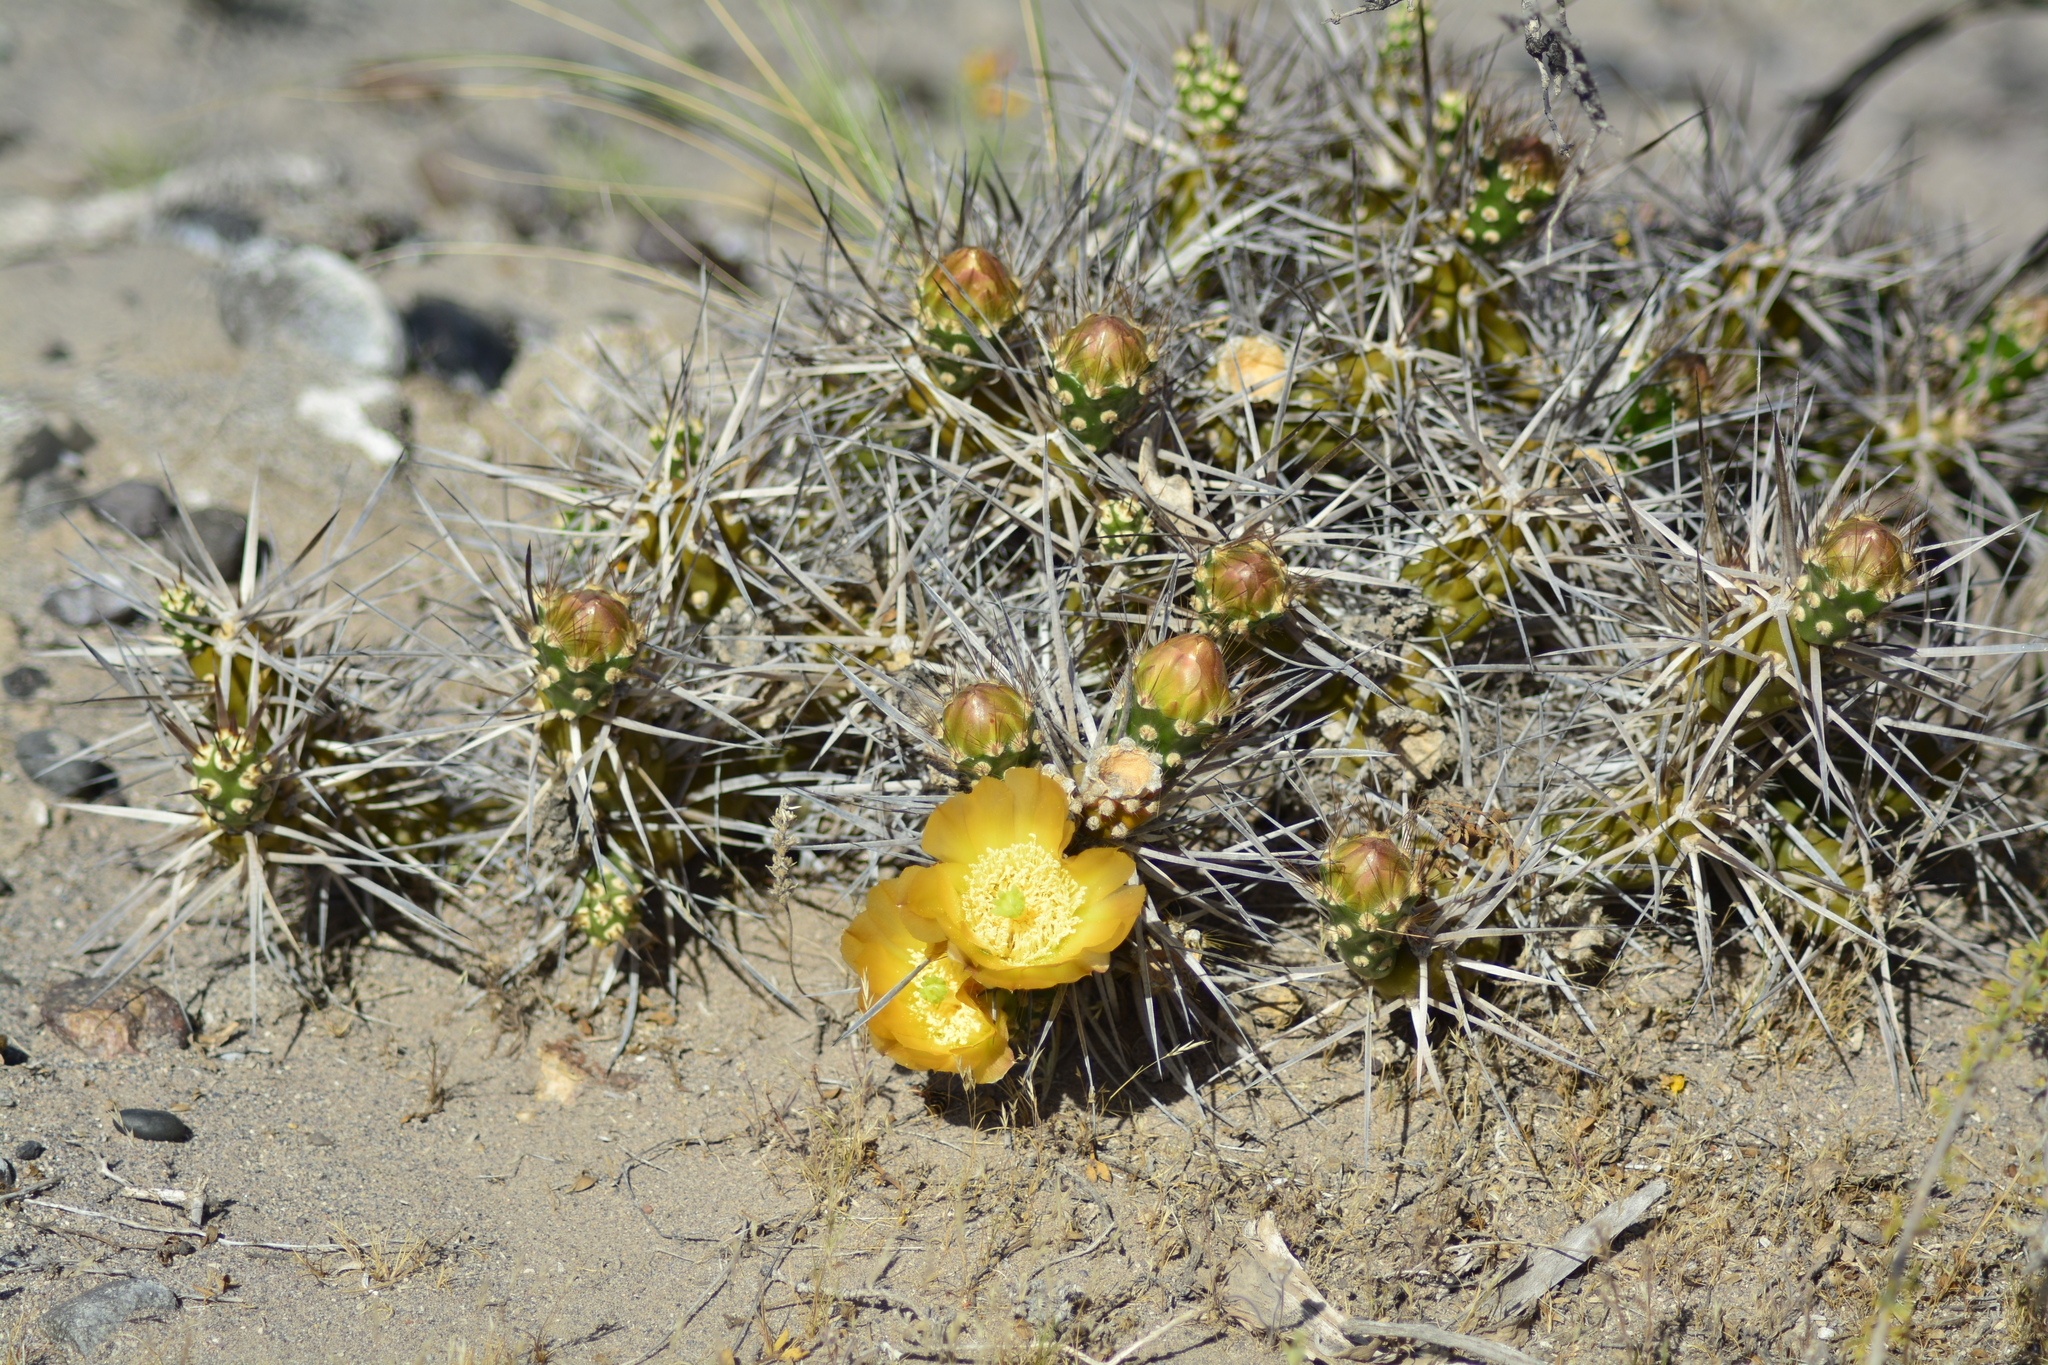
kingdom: Plantae
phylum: Tracheophyta
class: Magnoliopsida
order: Caryophyllales
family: Cactaceae
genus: Maihueniopsis
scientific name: Maihueniopsis hickenii
